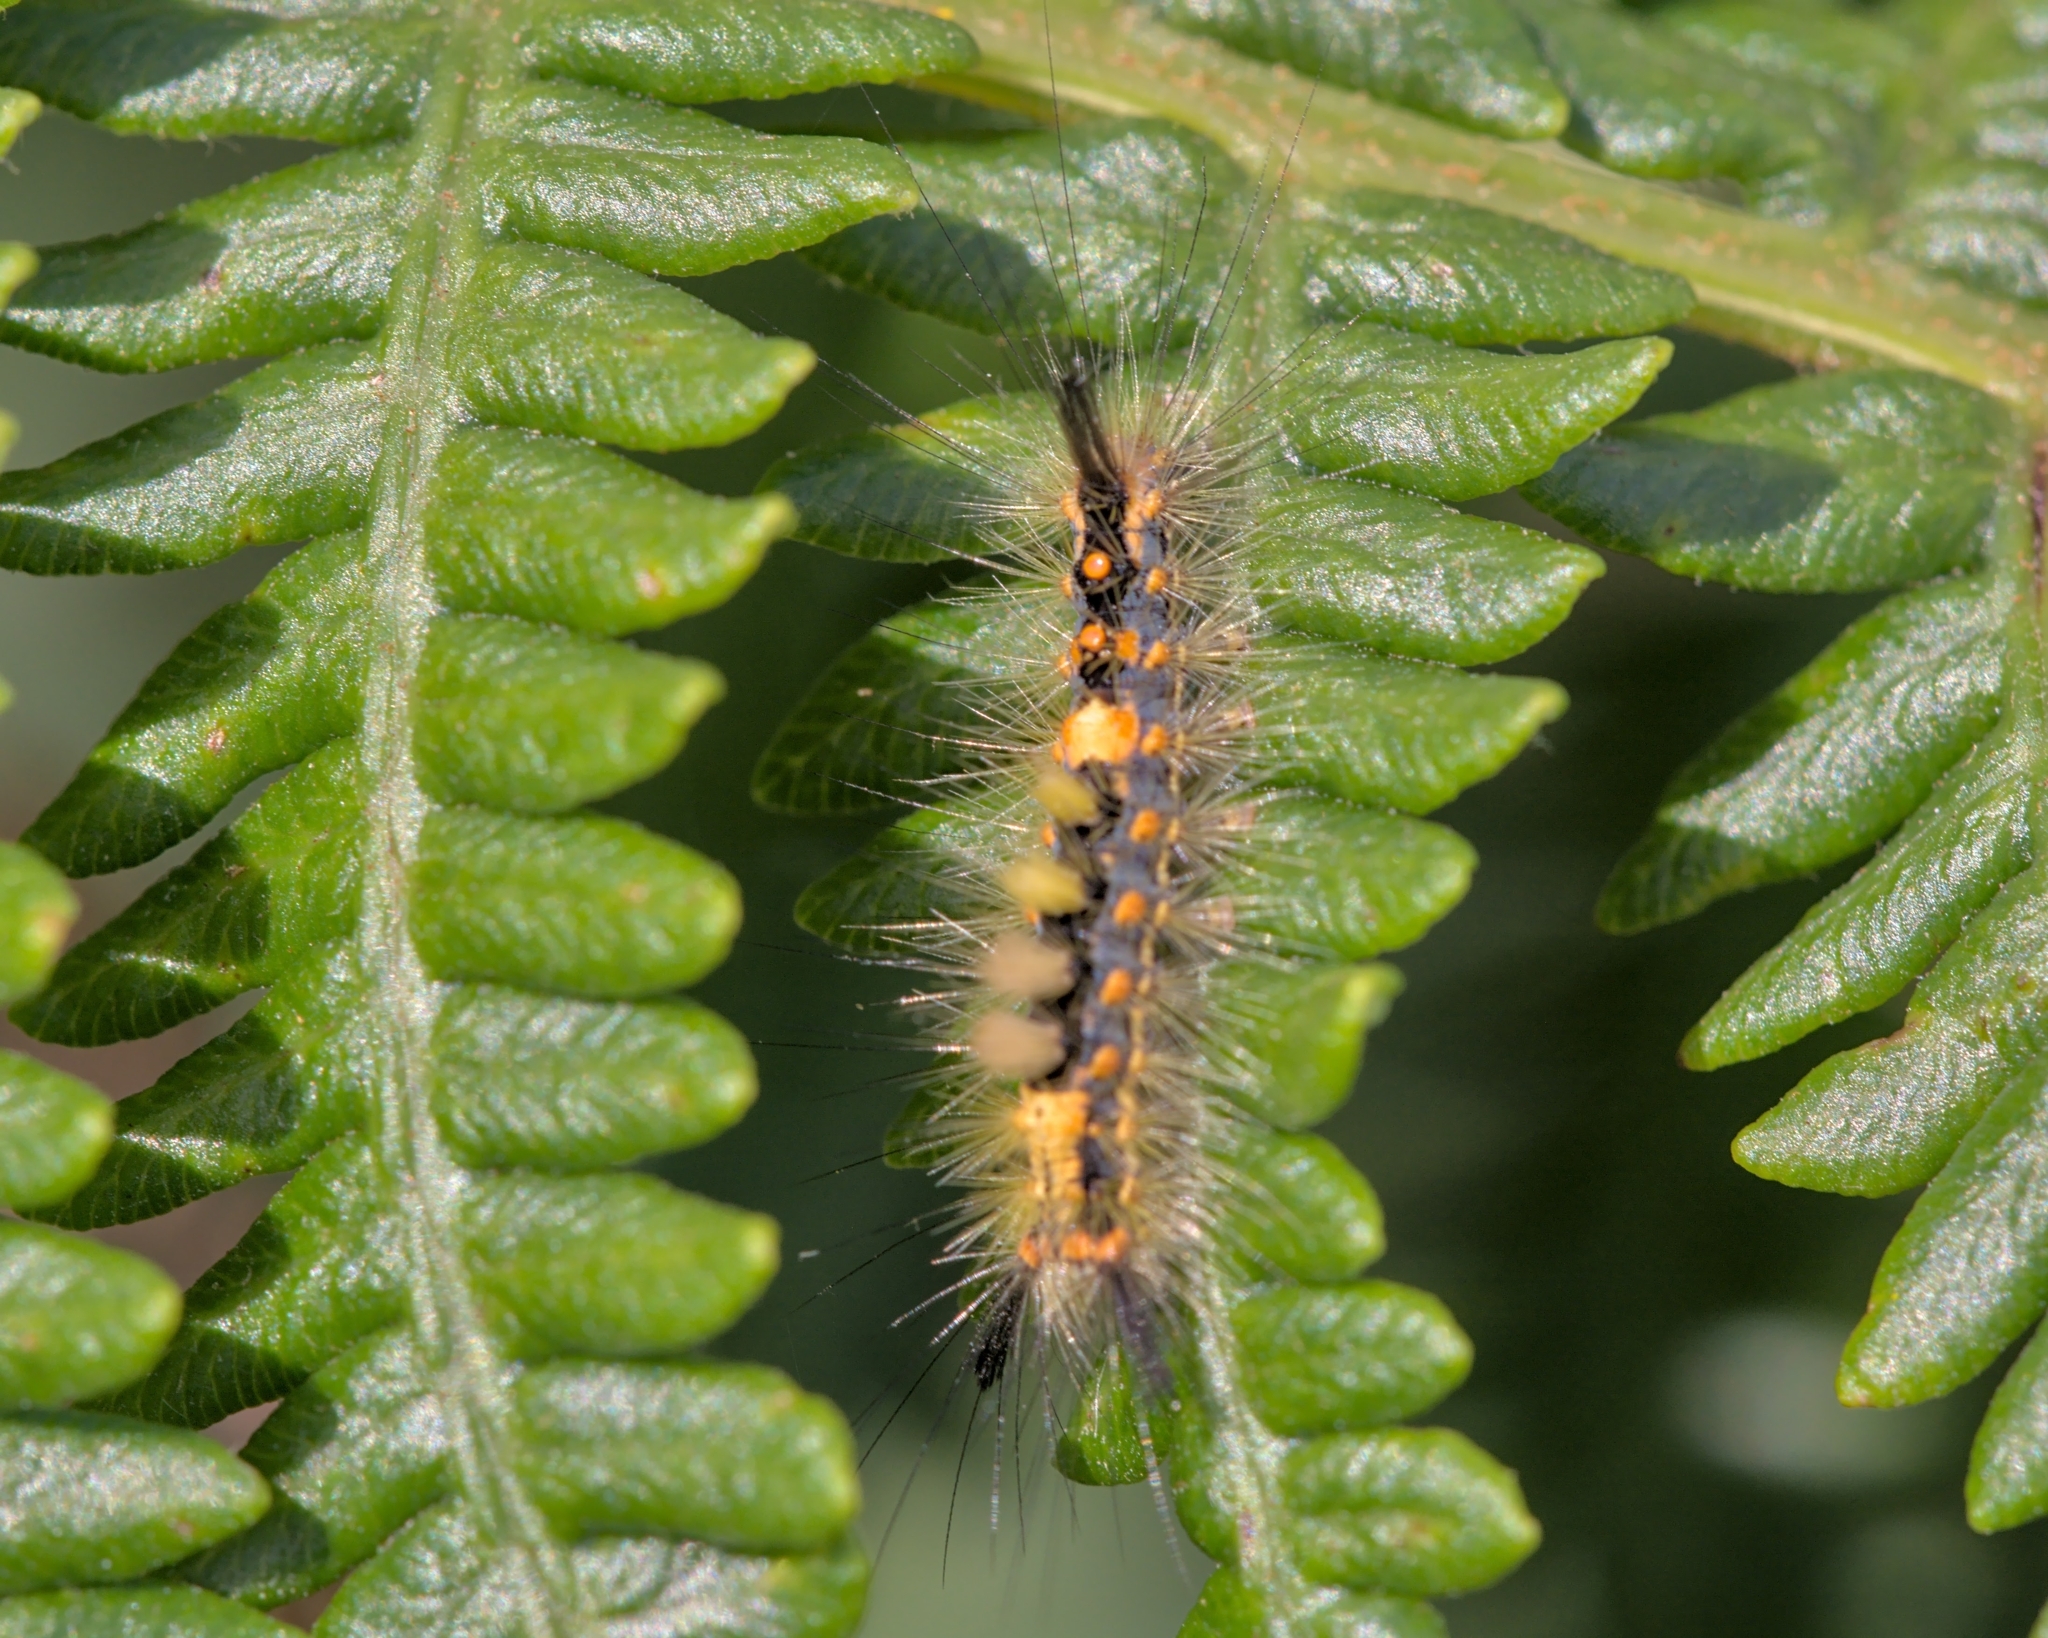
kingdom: Animalia
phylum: Arthropoda
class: Insecta
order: Lepidoptera
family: Erebidae
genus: Orgyia
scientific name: Orgyia antiqua
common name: Vapourer
